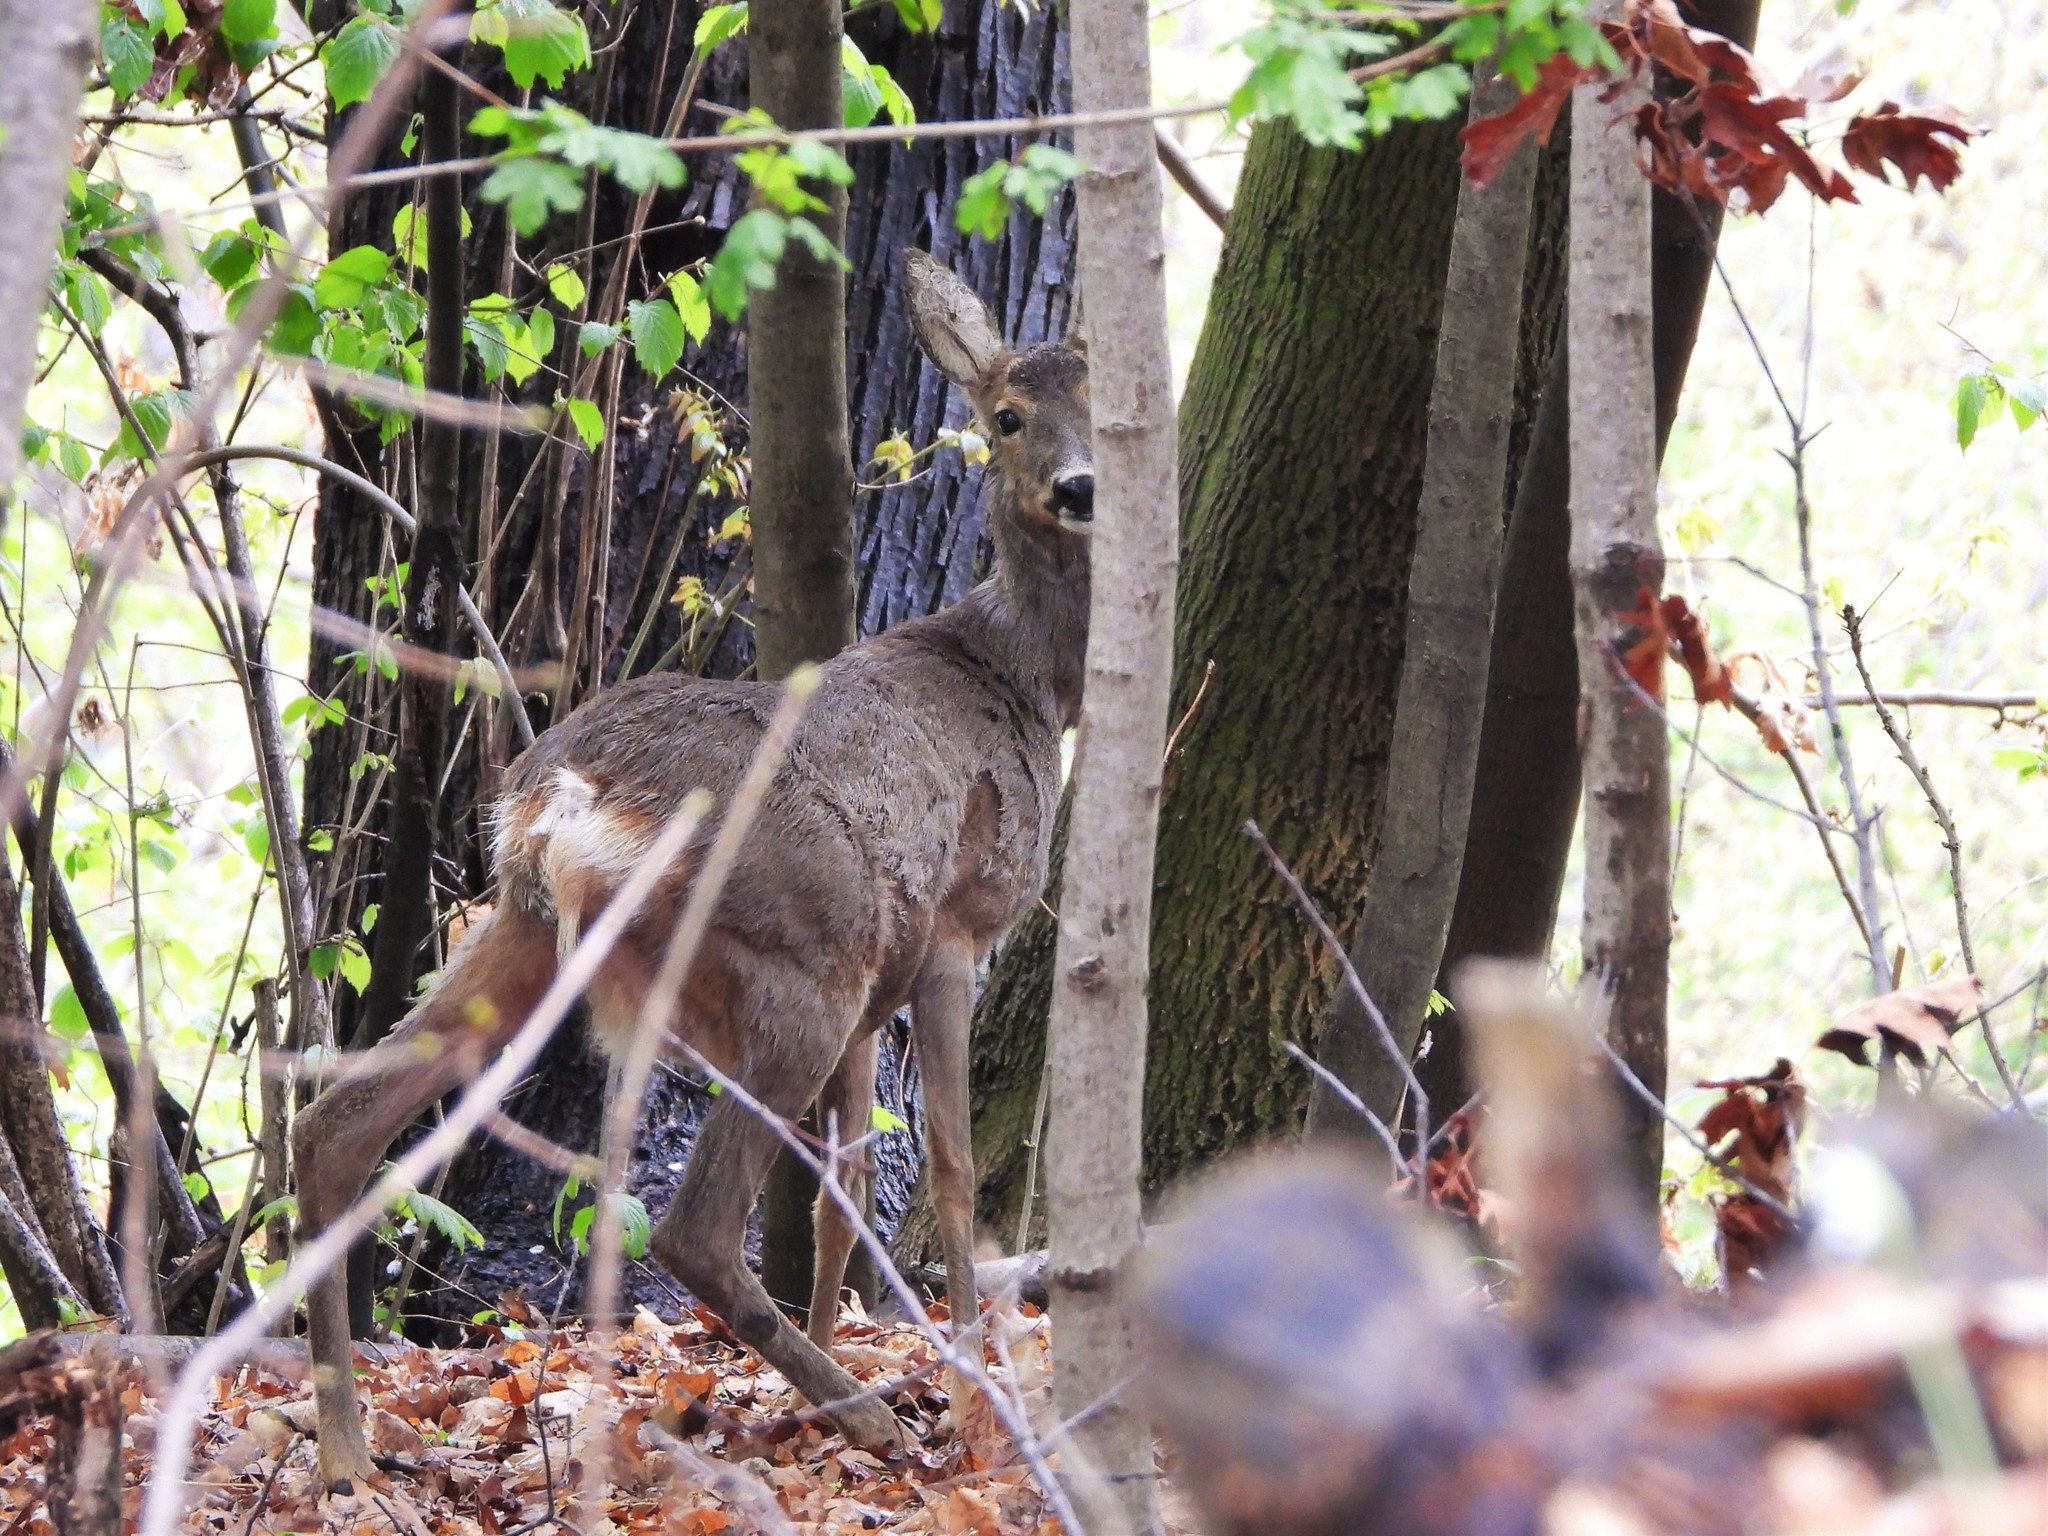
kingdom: Animalia
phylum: Chordata
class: Mammalia
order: Artiodactyla
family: Cervidae
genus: Capreolus
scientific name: Capreolus capreolus
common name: Western roe deer
